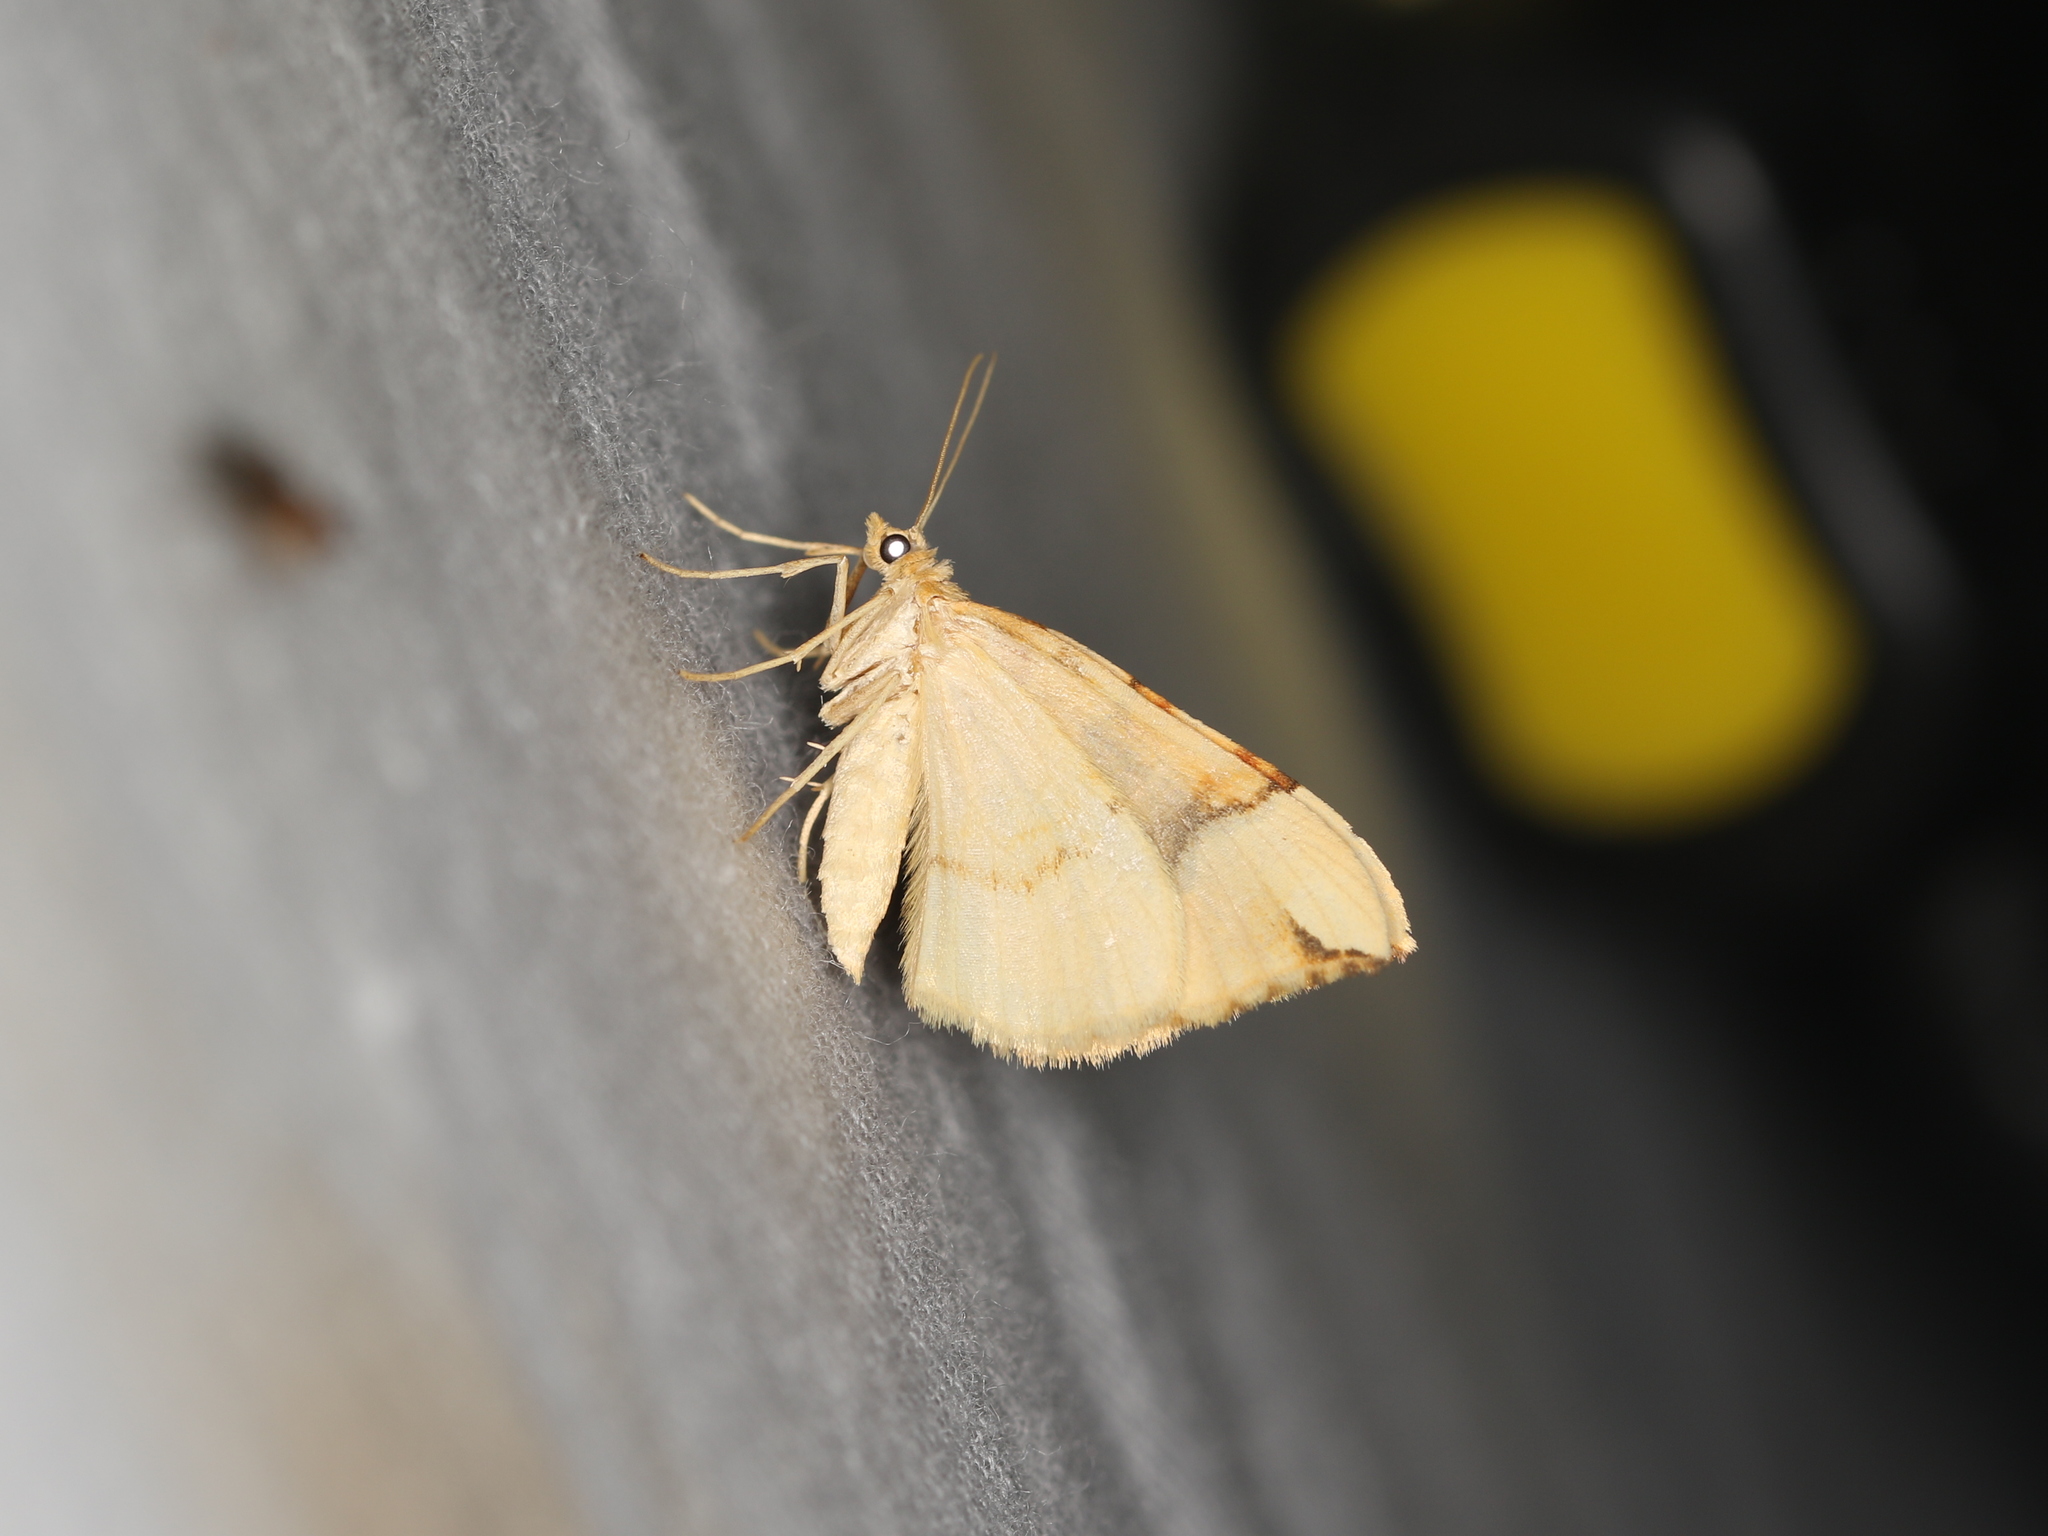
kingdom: Animalia
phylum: Arthropoda
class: Insecta
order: Lepidoptera
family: Geometridae
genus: Cidaria
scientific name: Cidaria fulvata
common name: Barred yellow
